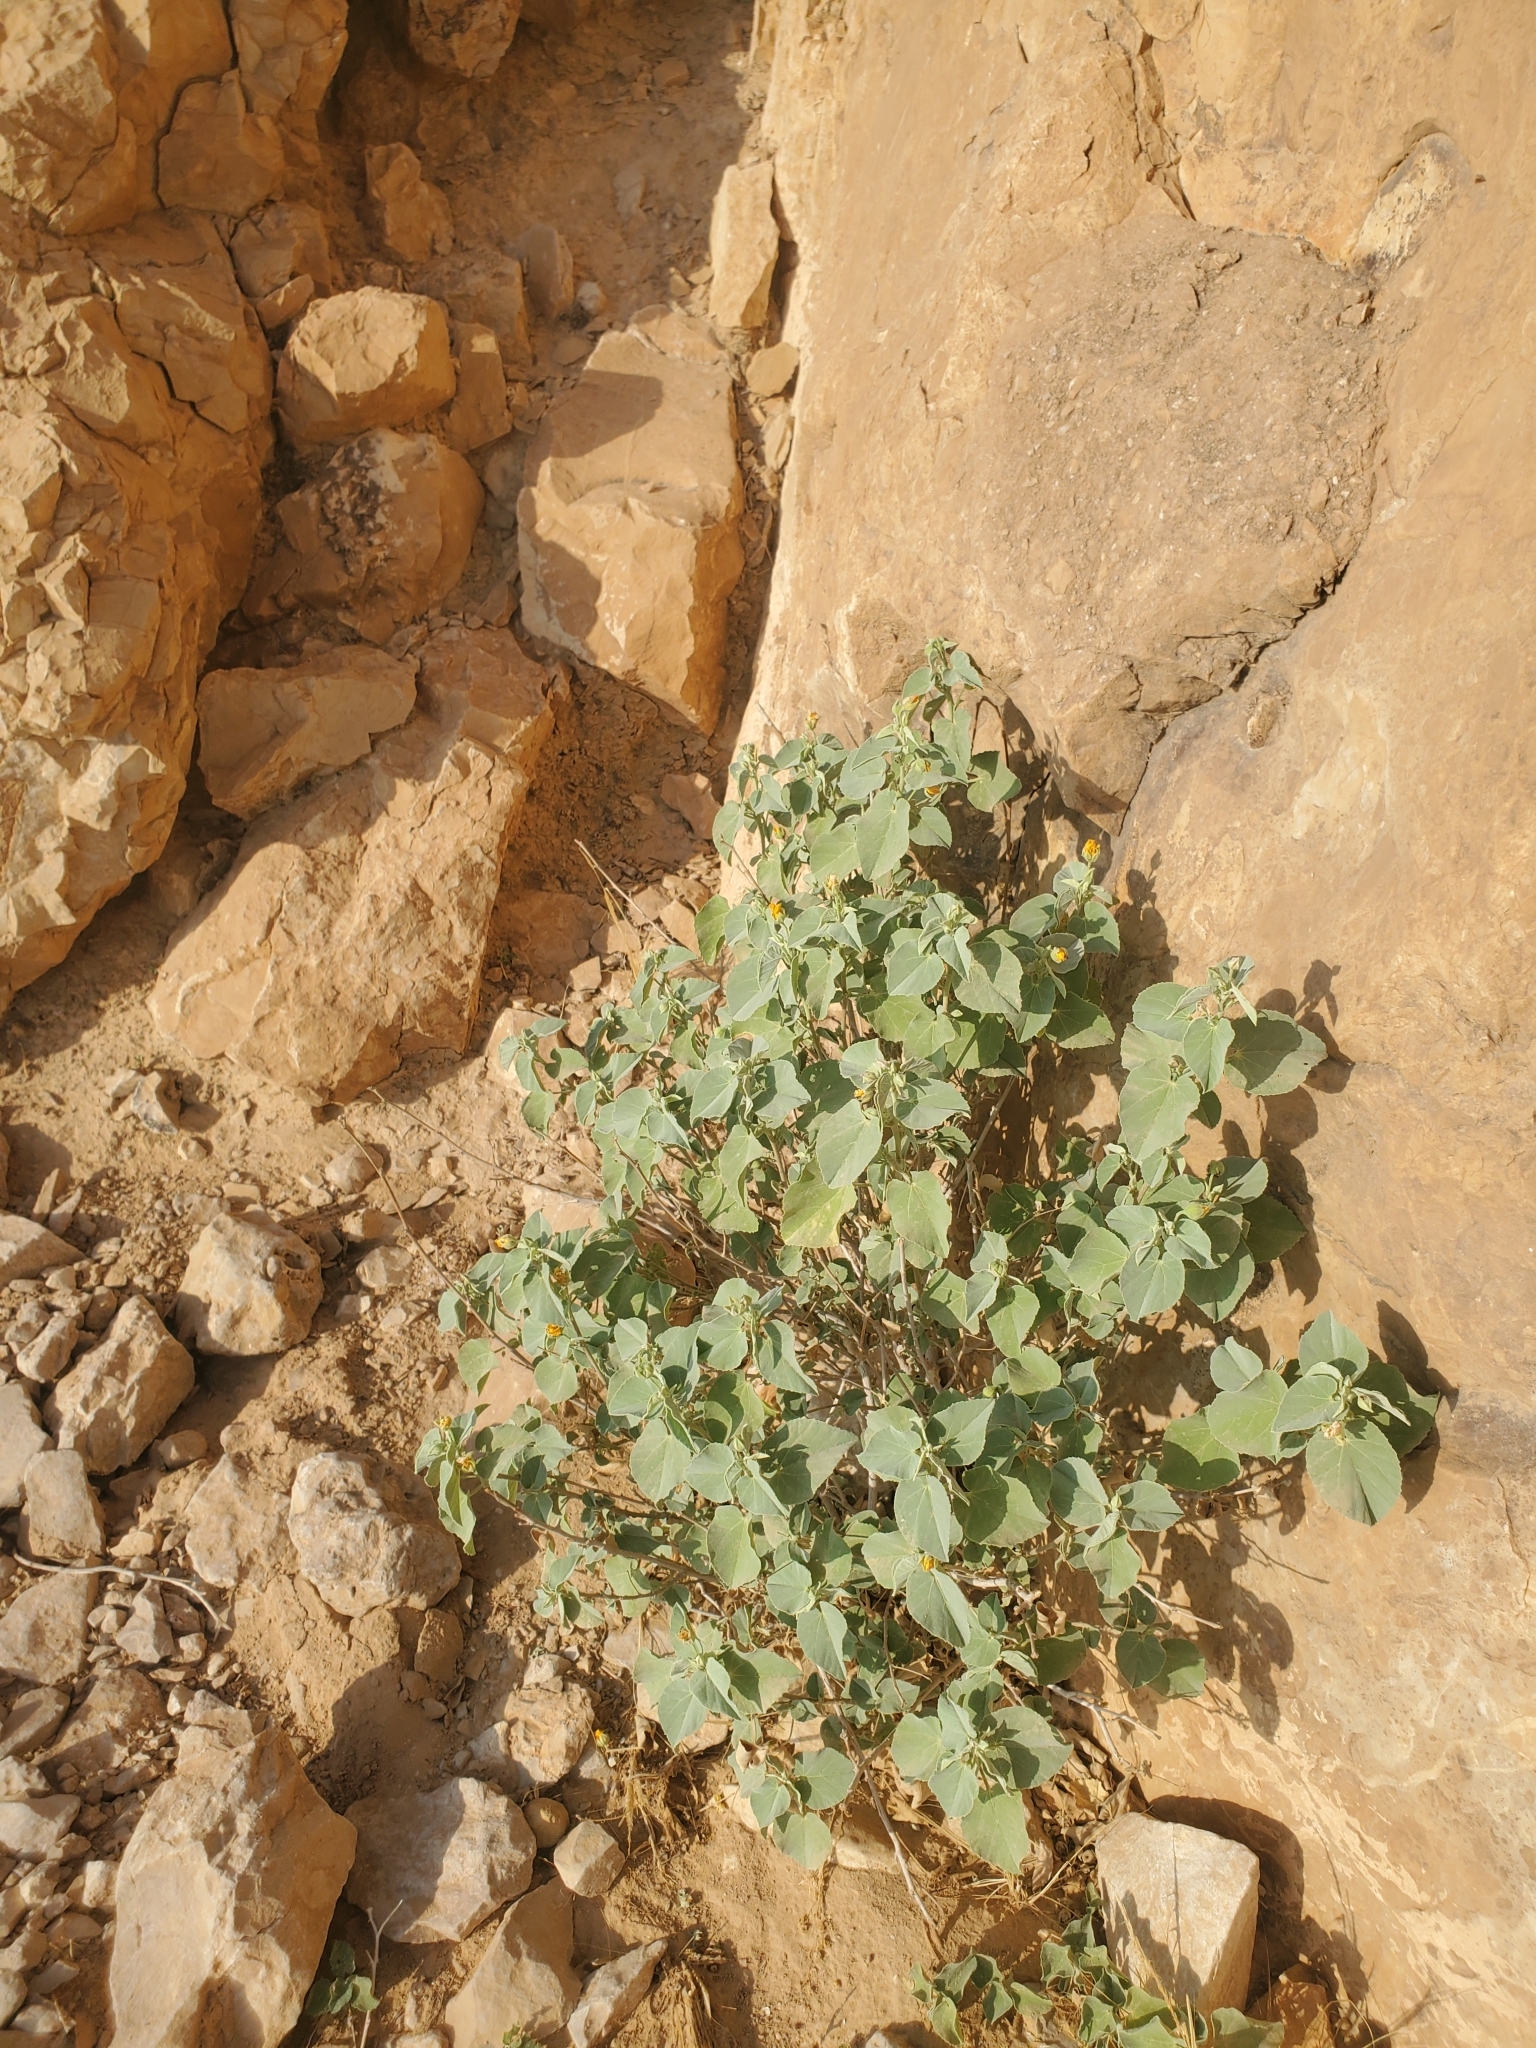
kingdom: Plantae
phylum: Tracheophyta
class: Magnoliopsida
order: Malvales
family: Malvaceae
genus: Abutilon
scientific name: Abutilon fruticosum
